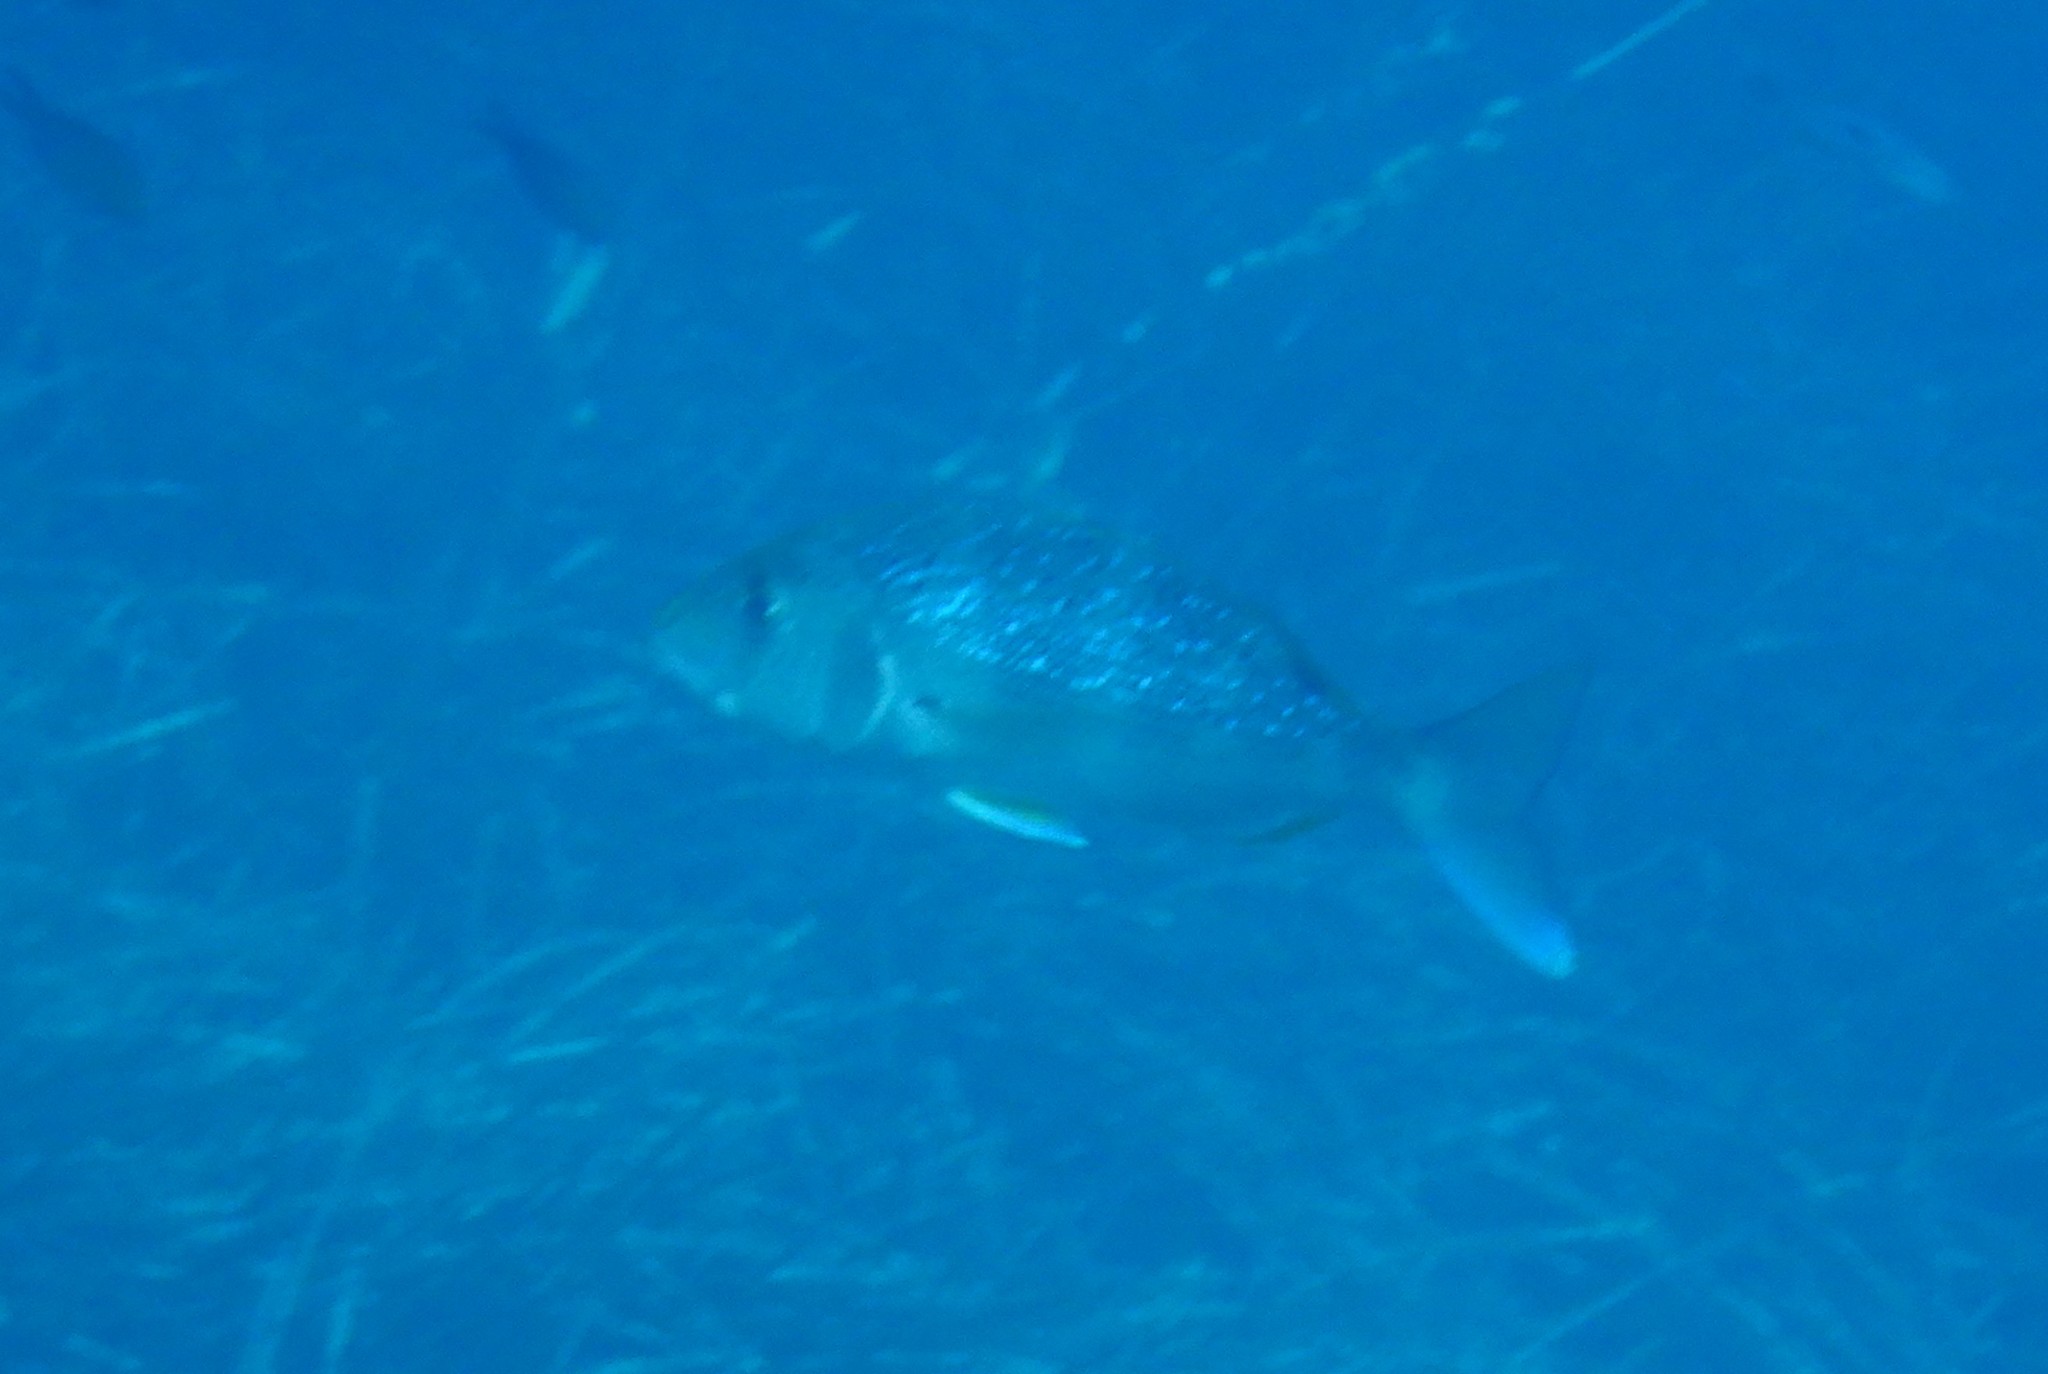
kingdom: Animalia
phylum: Chordata
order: Perciformes
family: Sparidae
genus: Dentex
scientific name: Dentex dentex
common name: Dentex
